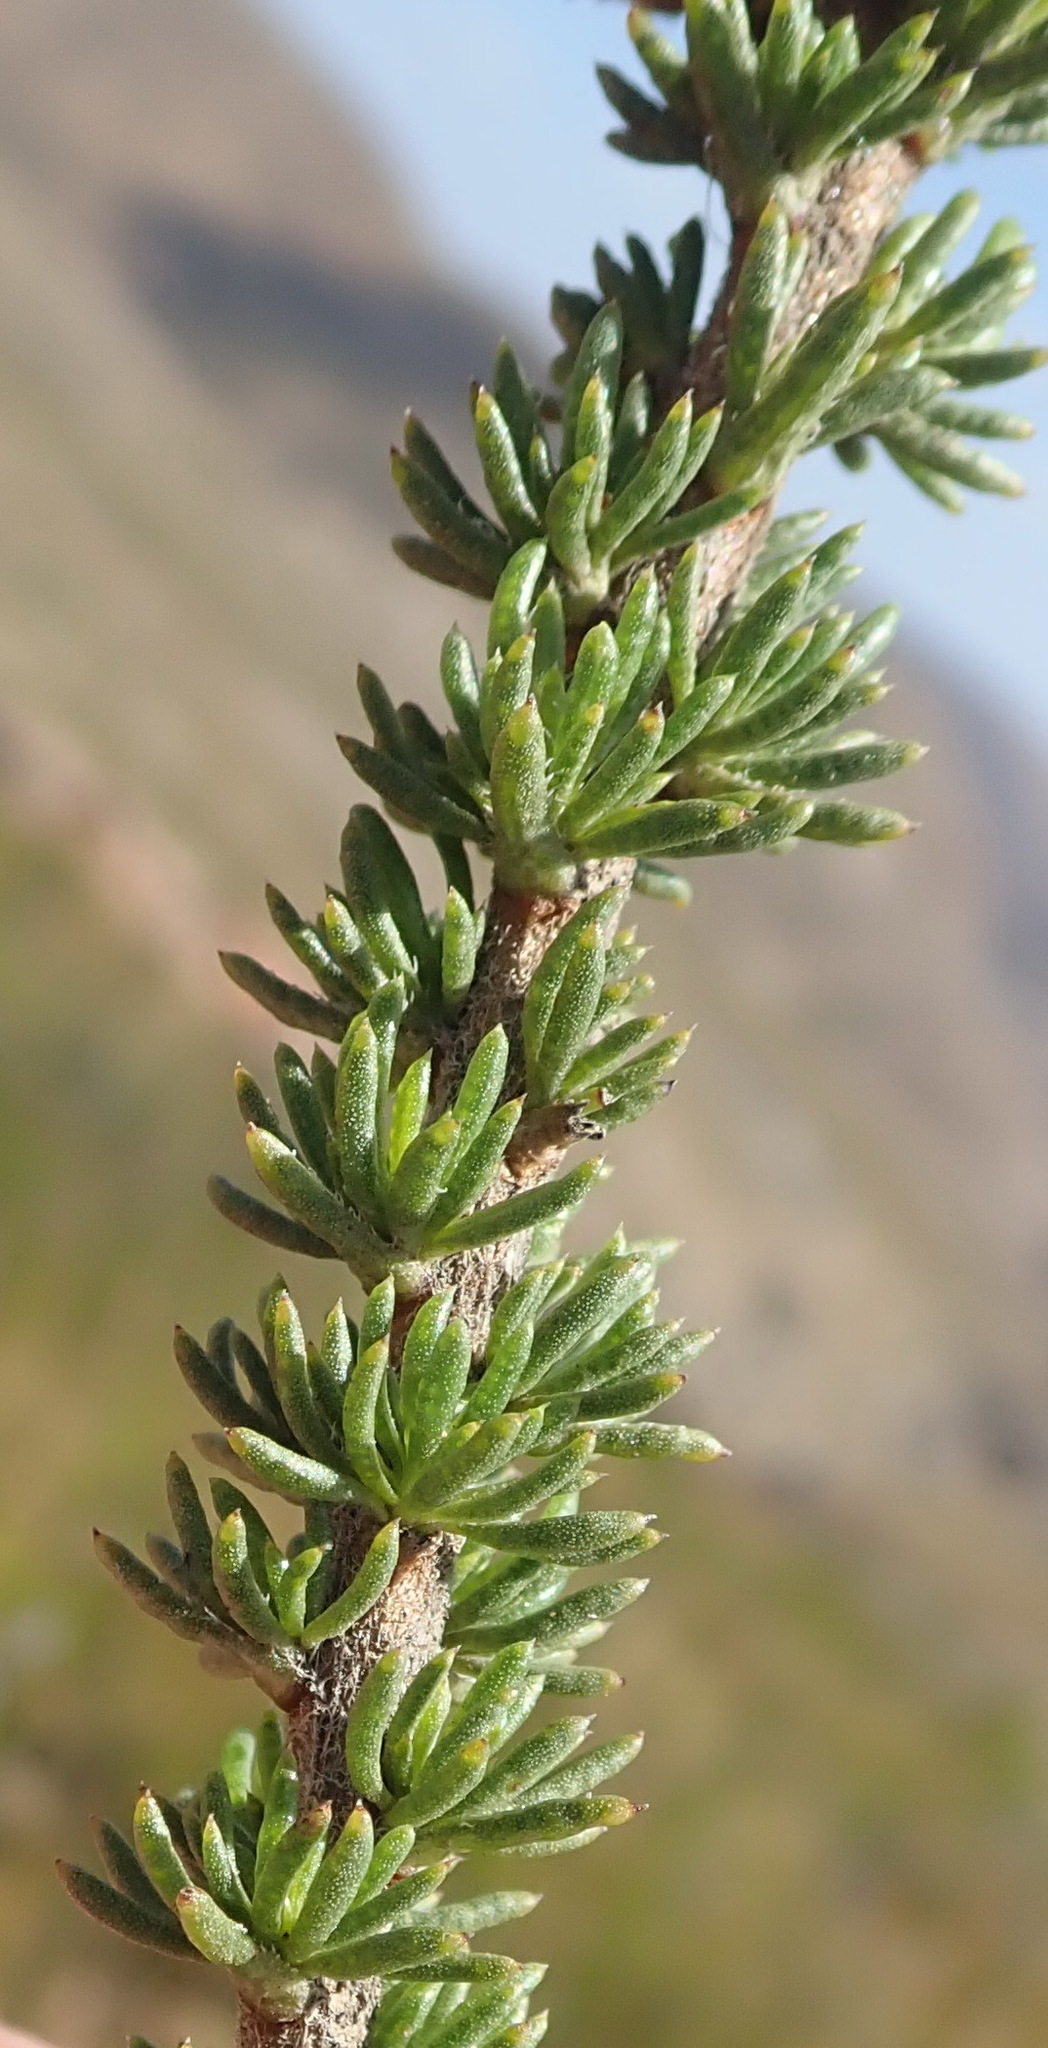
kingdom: Plantae
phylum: Tracheophyta
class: Magnoliopsida
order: Asterales
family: Asteraceae
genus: Pteronia
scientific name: Pteronia camphorata
